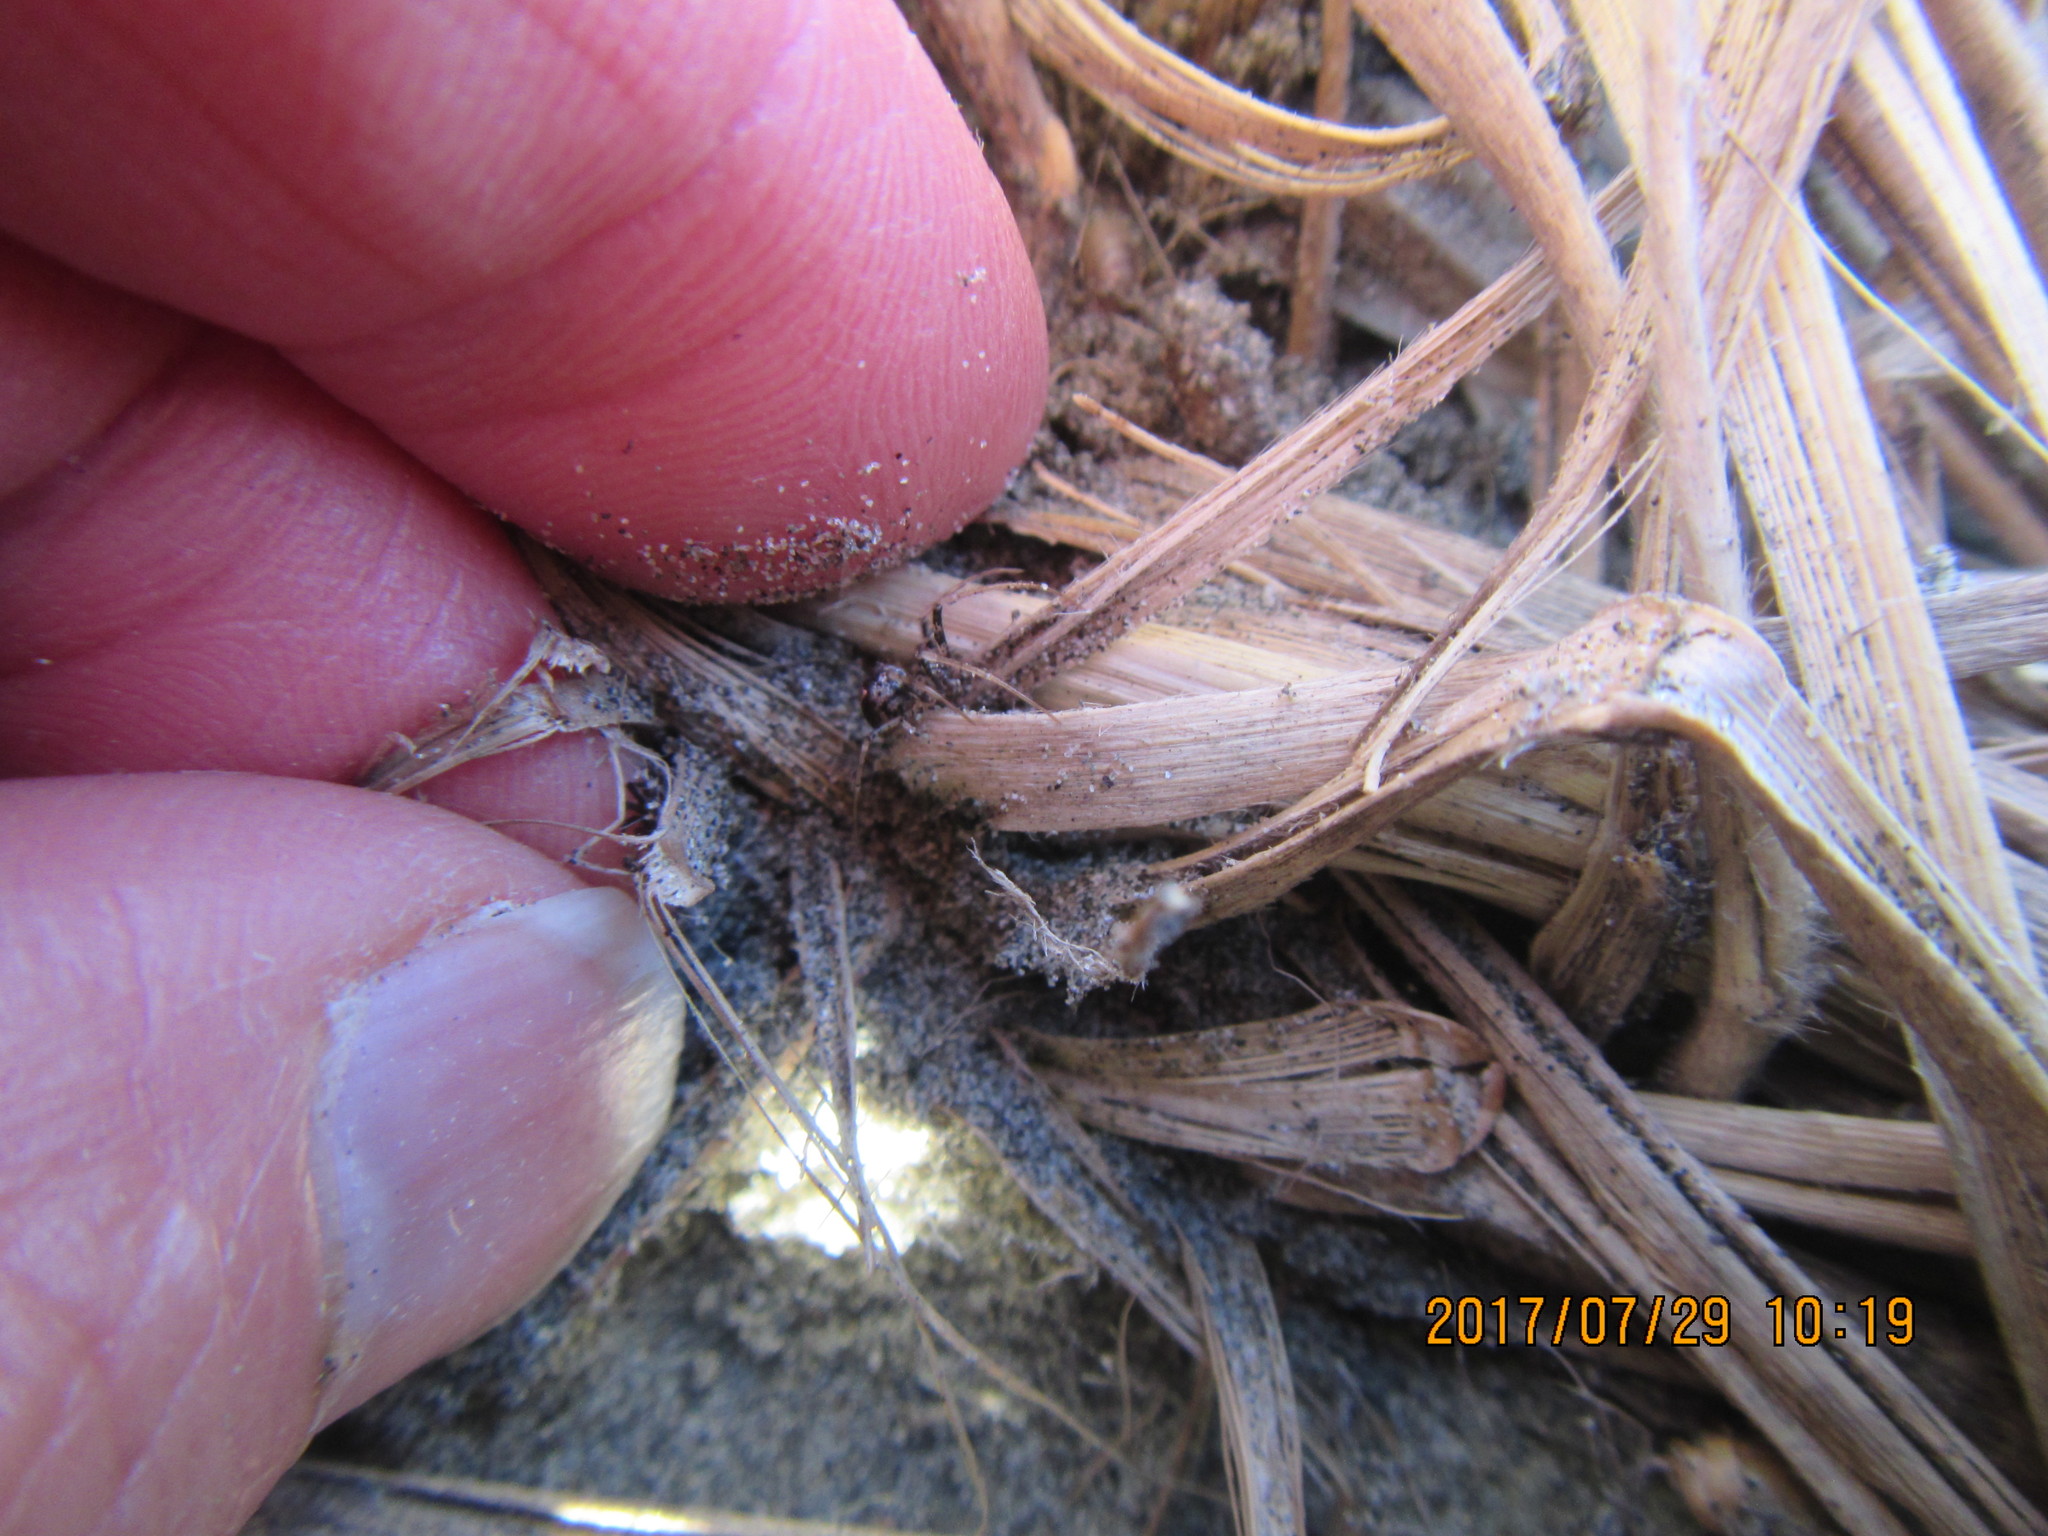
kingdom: Animalia
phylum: Arthropoda
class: Arachnida
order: Araneae
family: Mimetidae
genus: Australomimetus
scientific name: Australomimetus hartleyensis
